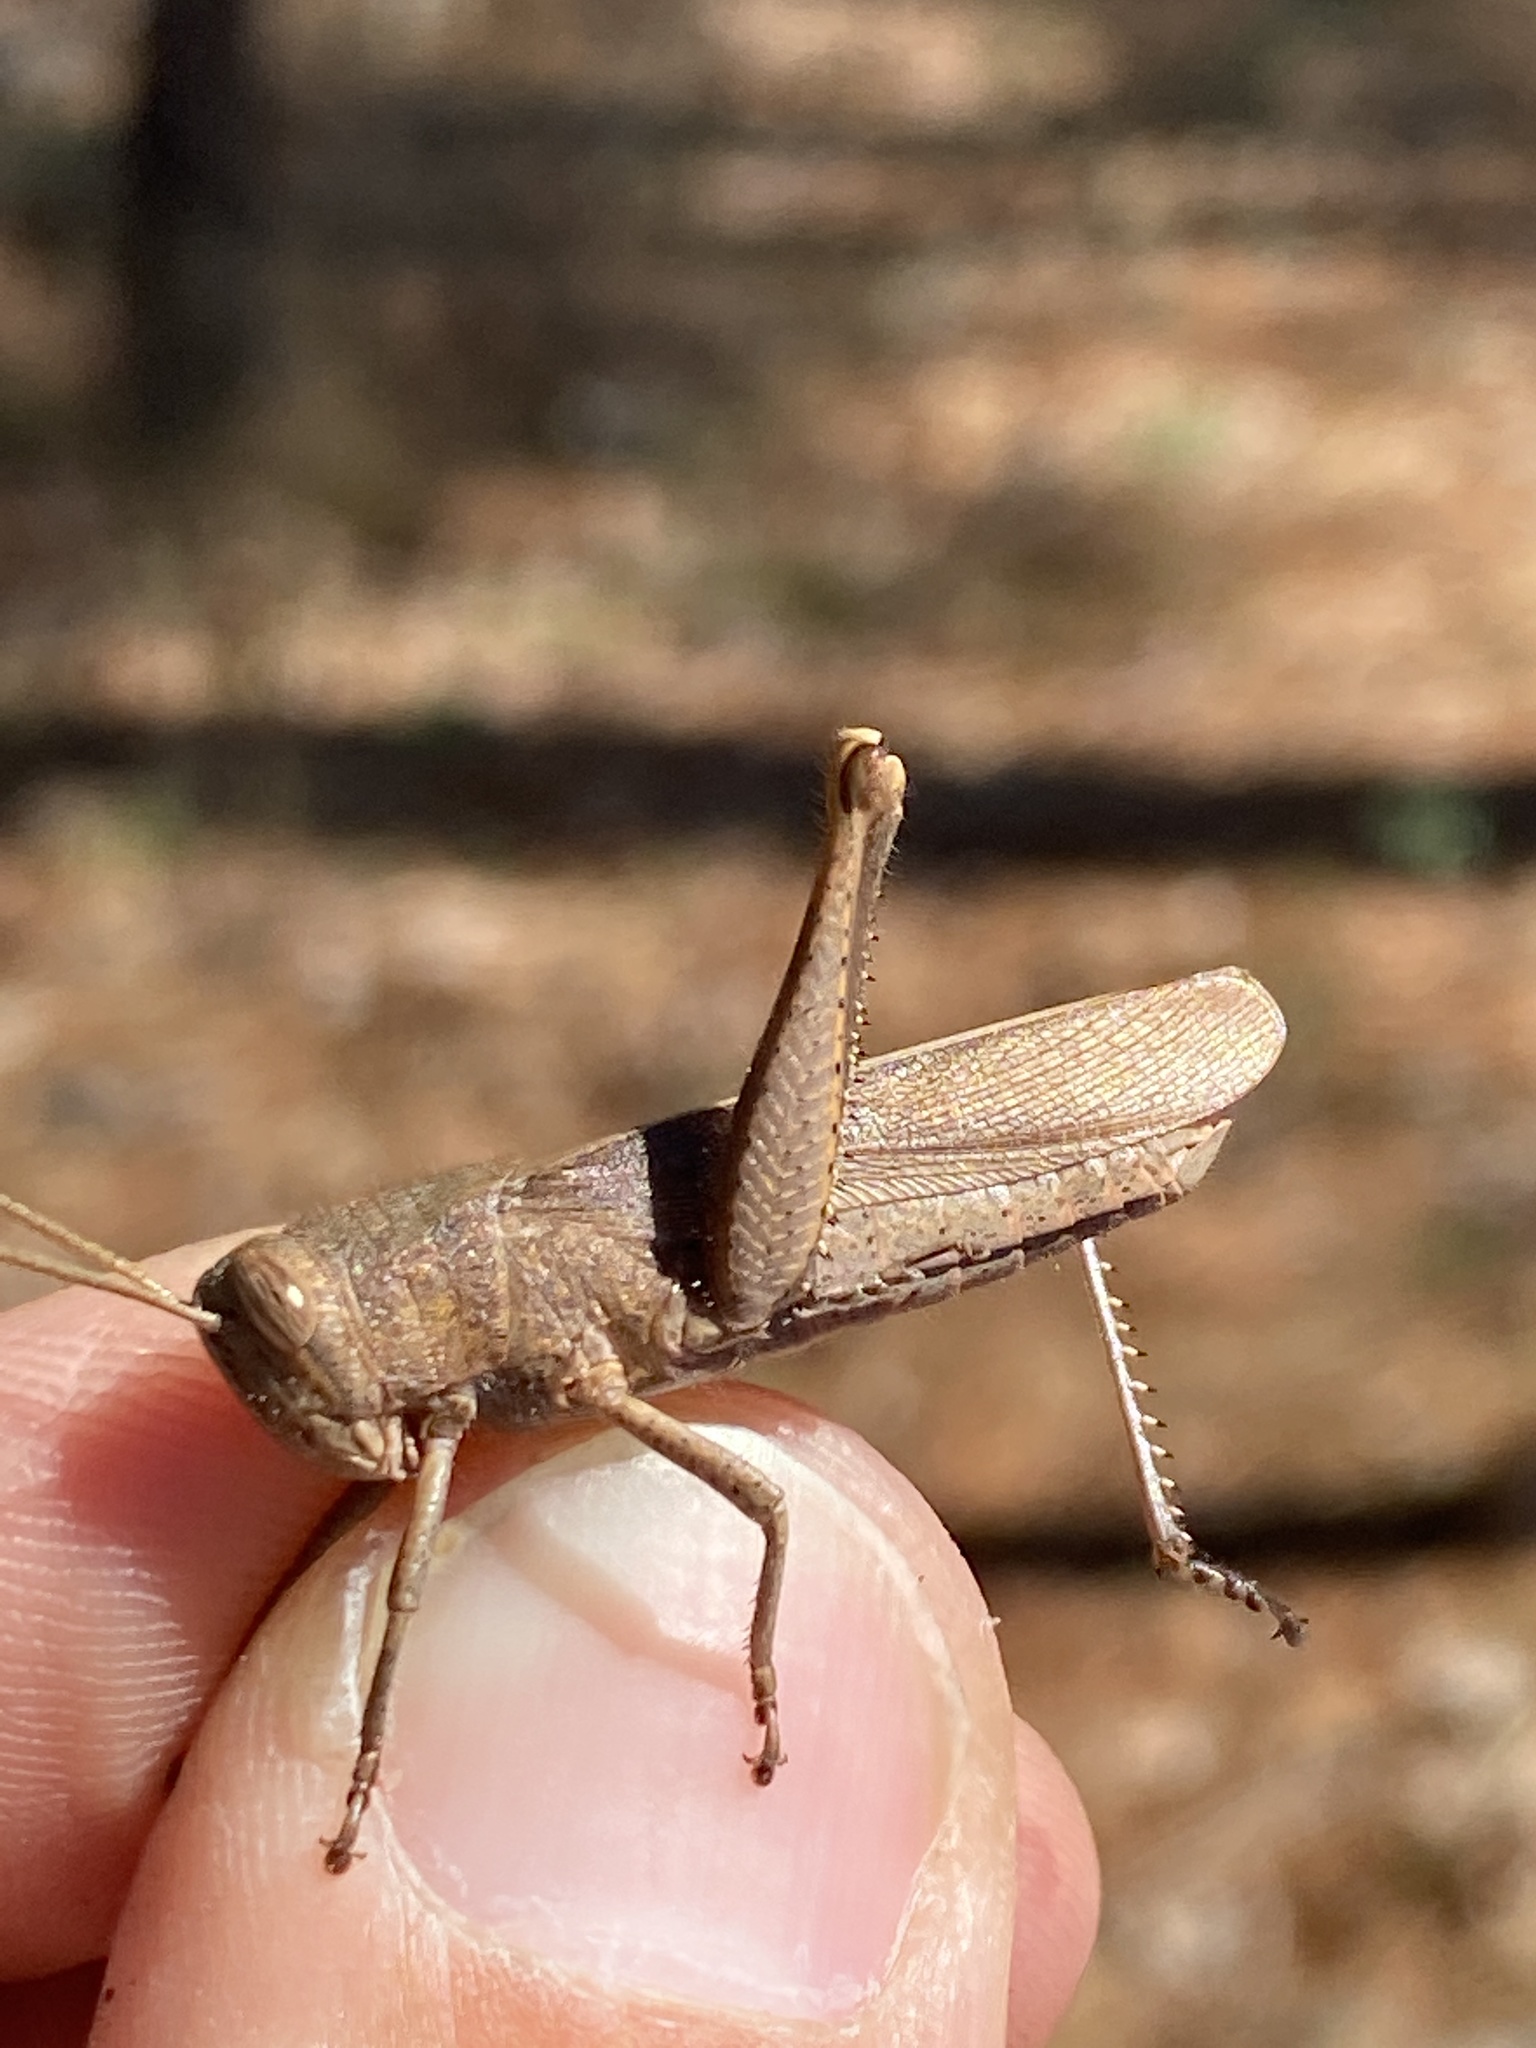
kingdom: Animalia
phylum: Arthropoda
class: Insecta
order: Orthoptera
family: Acrididae
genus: Schistocerca
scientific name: Schistocerca damnifica
